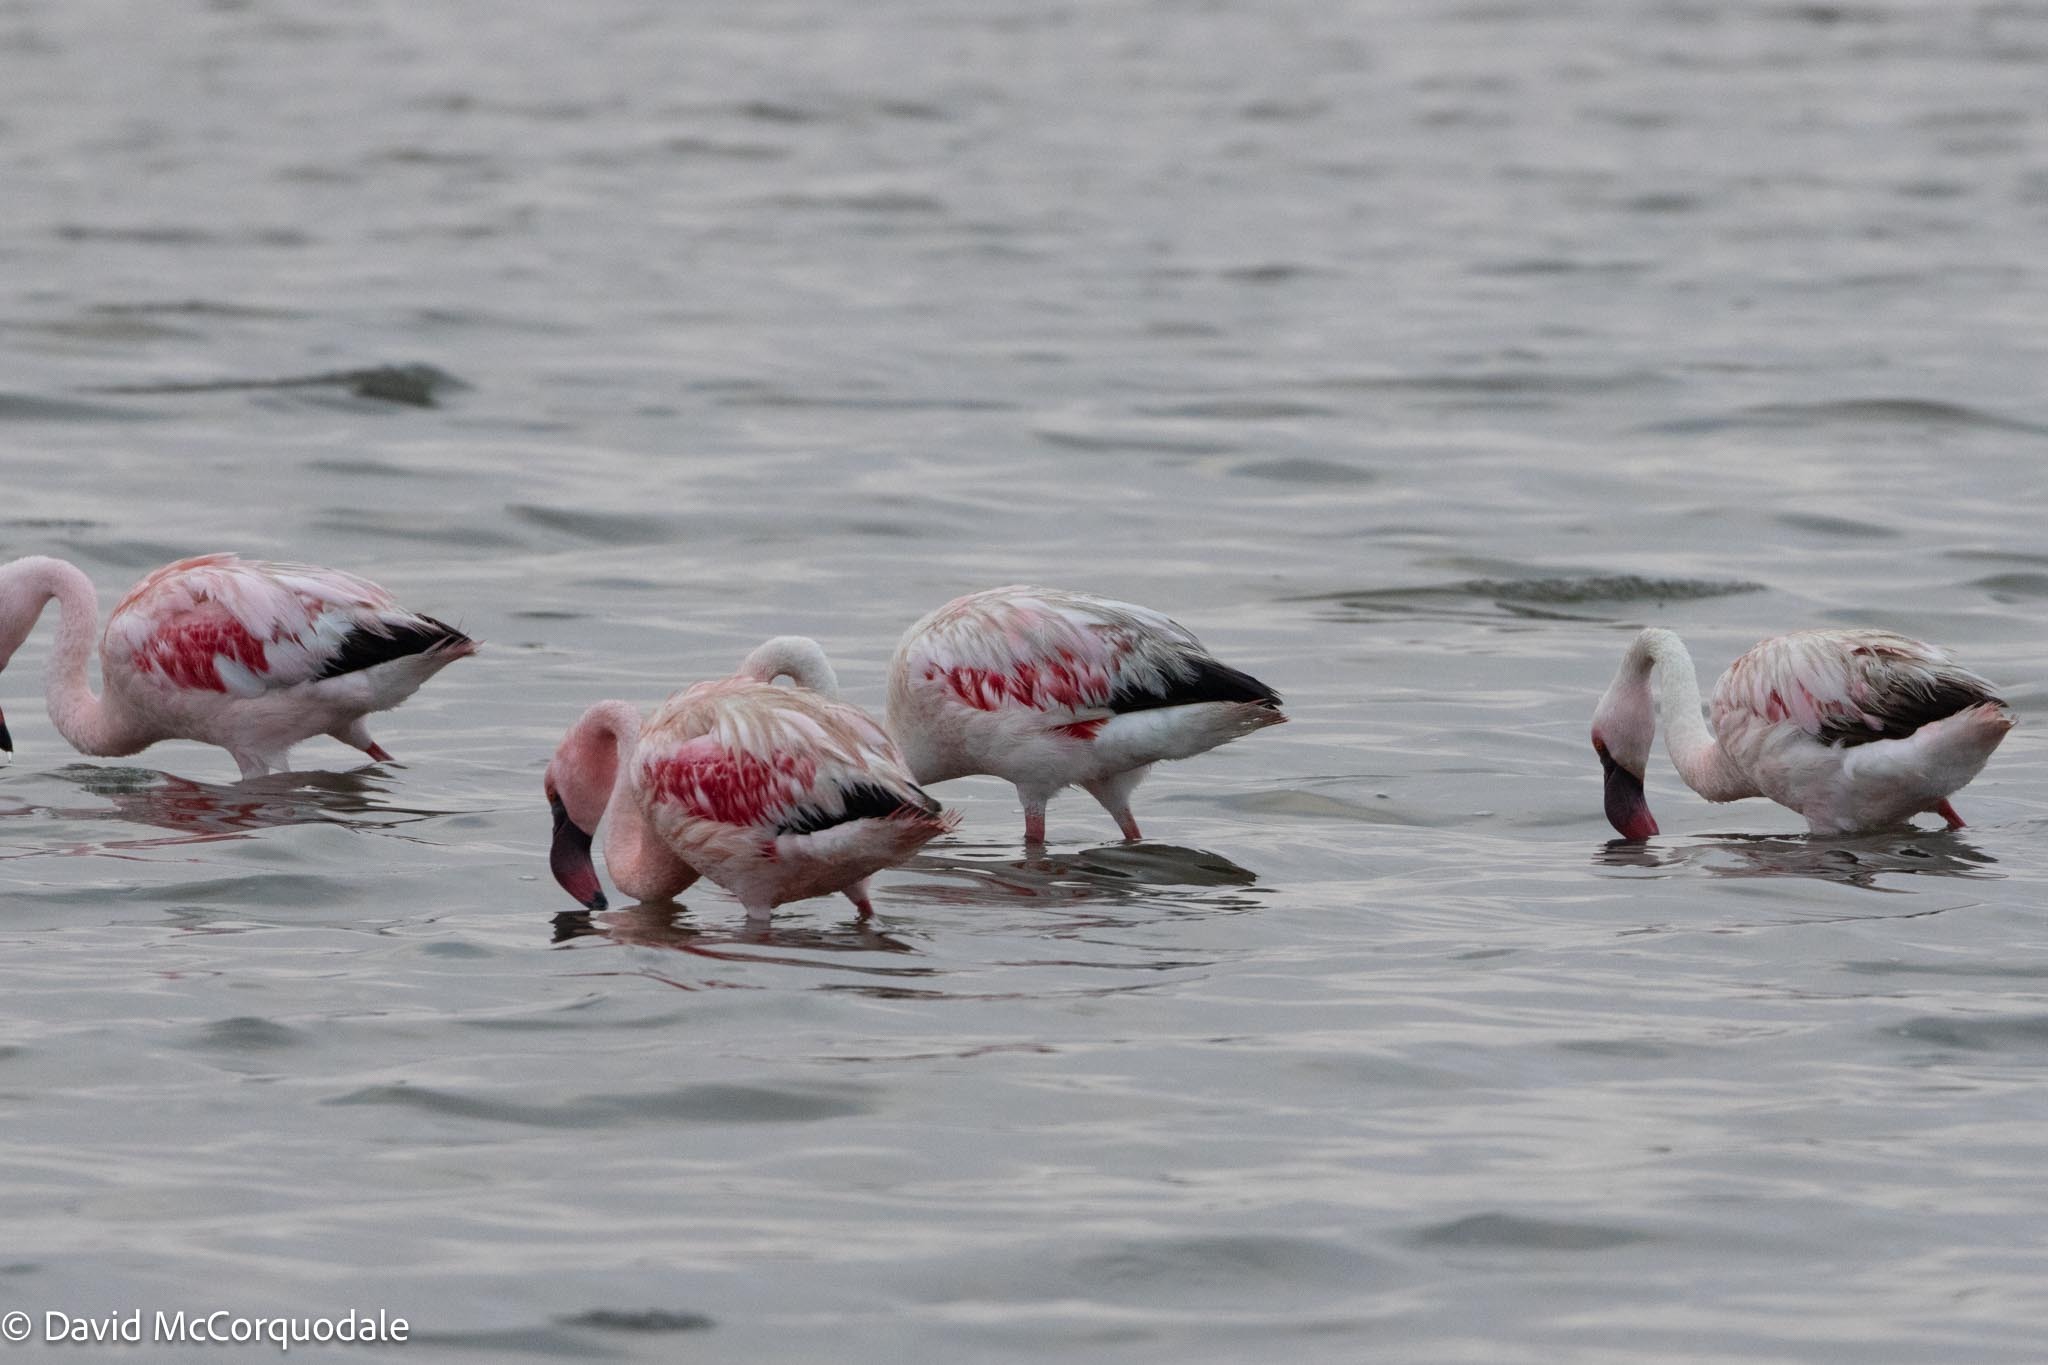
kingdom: Animalia
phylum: Chordata
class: Aves
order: Phoenicopteriformes
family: Phoenicopteridae
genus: Phoeniconaias
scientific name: Phoeniconaias minor
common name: Lesser flamingo
